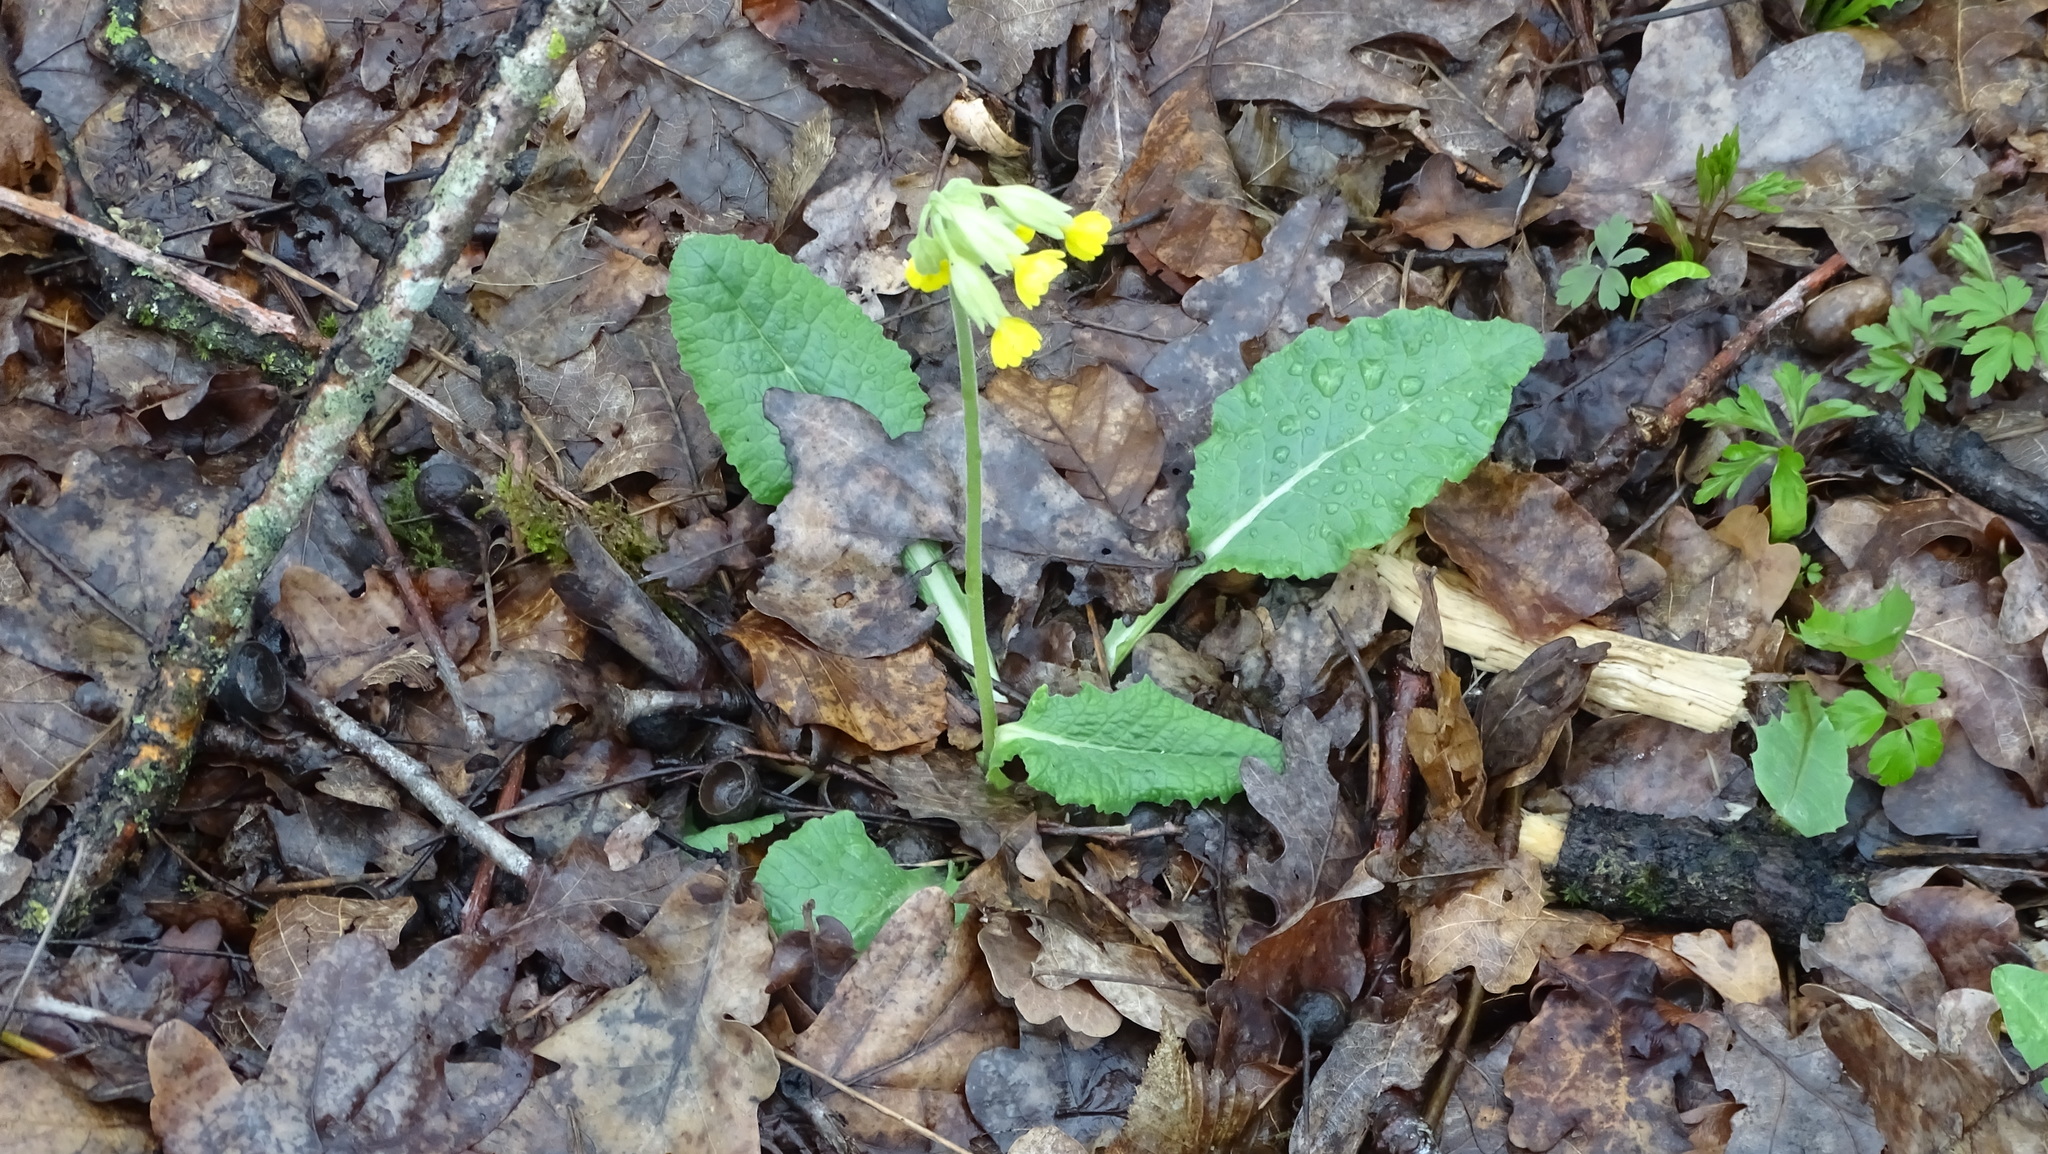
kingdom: Plantae
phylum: Tracheophyta
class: Magnoliopsida
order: Ericales
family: Primulaceae
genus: Primula
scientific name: Primula elatior
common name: Oxlip
